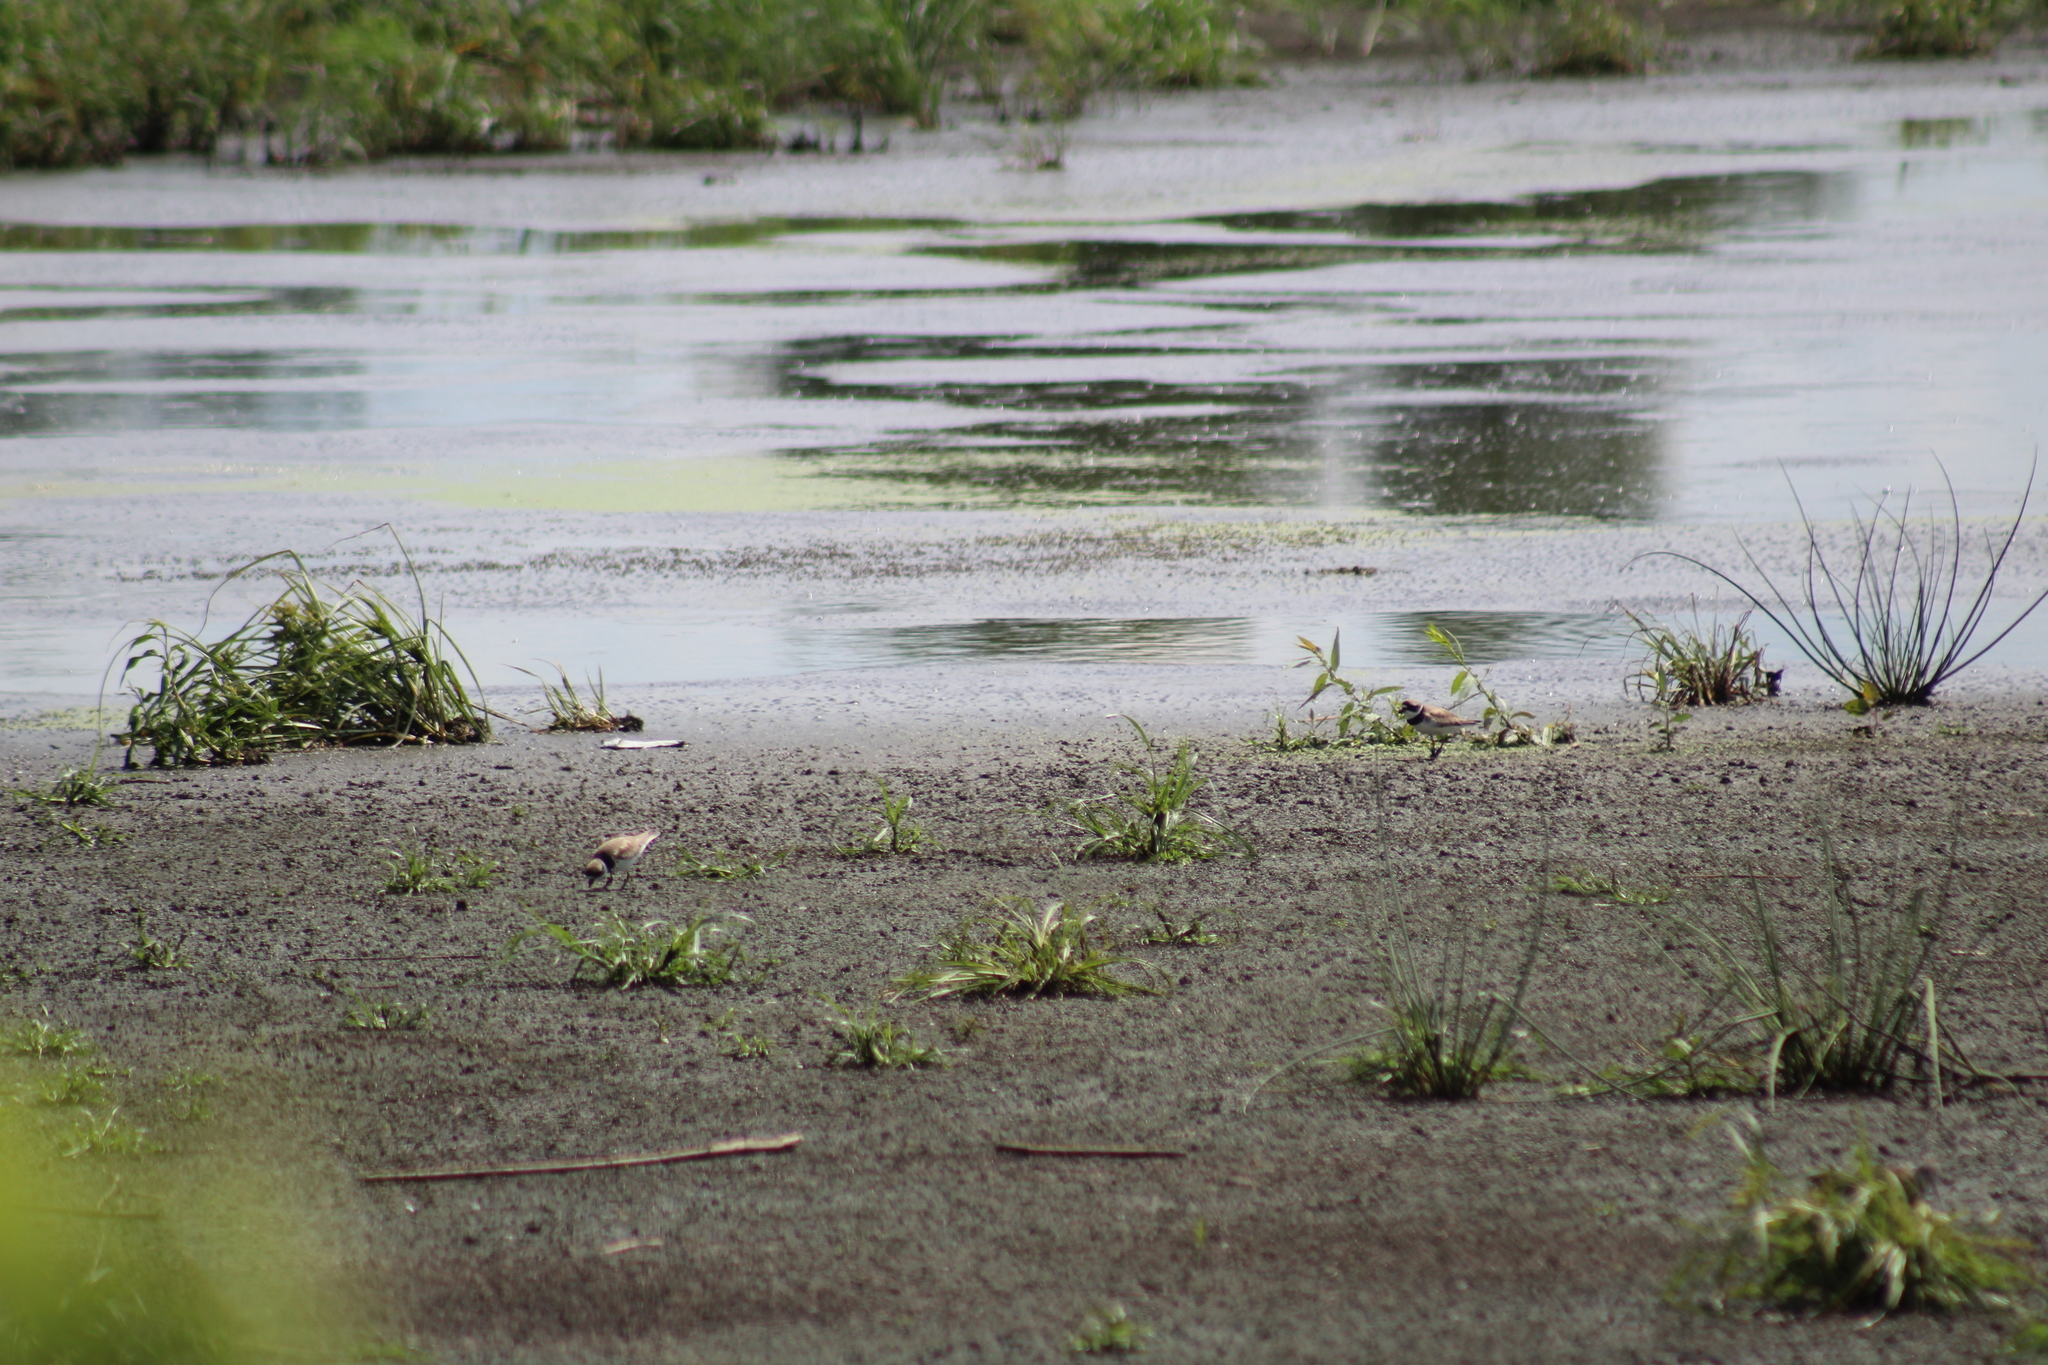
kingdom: Animalia
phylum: Chordata
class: Aves
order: Charadriiformes
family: Charadriidae
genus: Charadrius
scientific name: Charadrius semipalmatus
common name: Semipalmated plover
